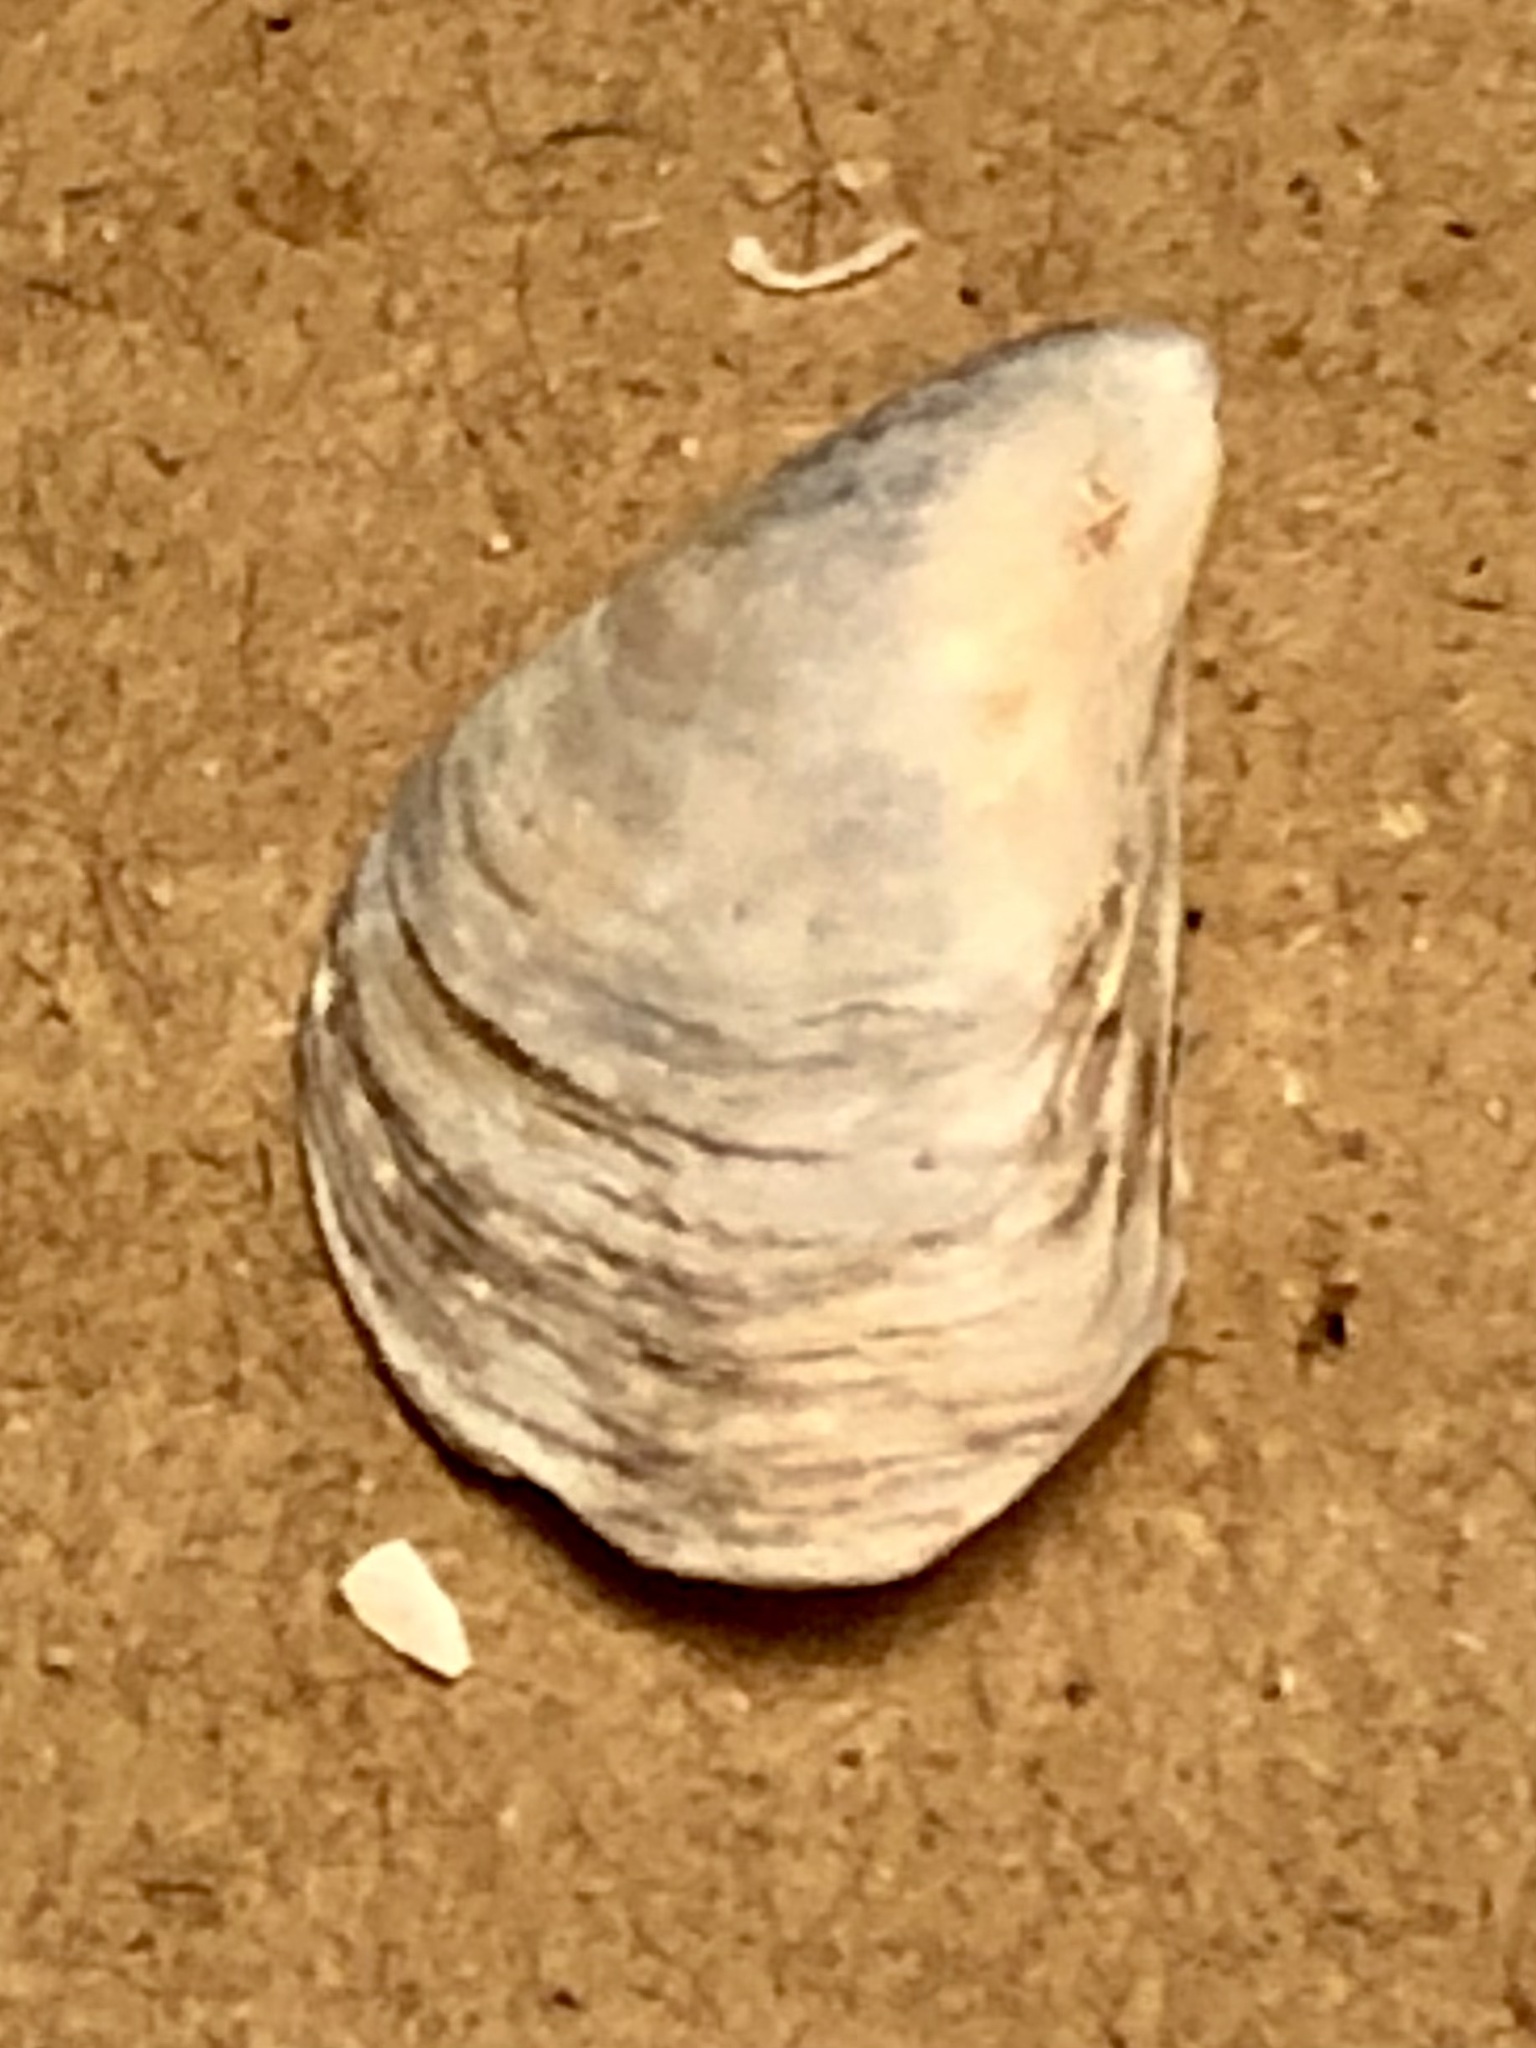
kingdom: Animalia
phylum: Mollusca
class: Bivalvia
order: Myida
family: Dreissenidae
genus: Dreissena
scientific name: Dreissena bugensis
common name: Quagga mussel
